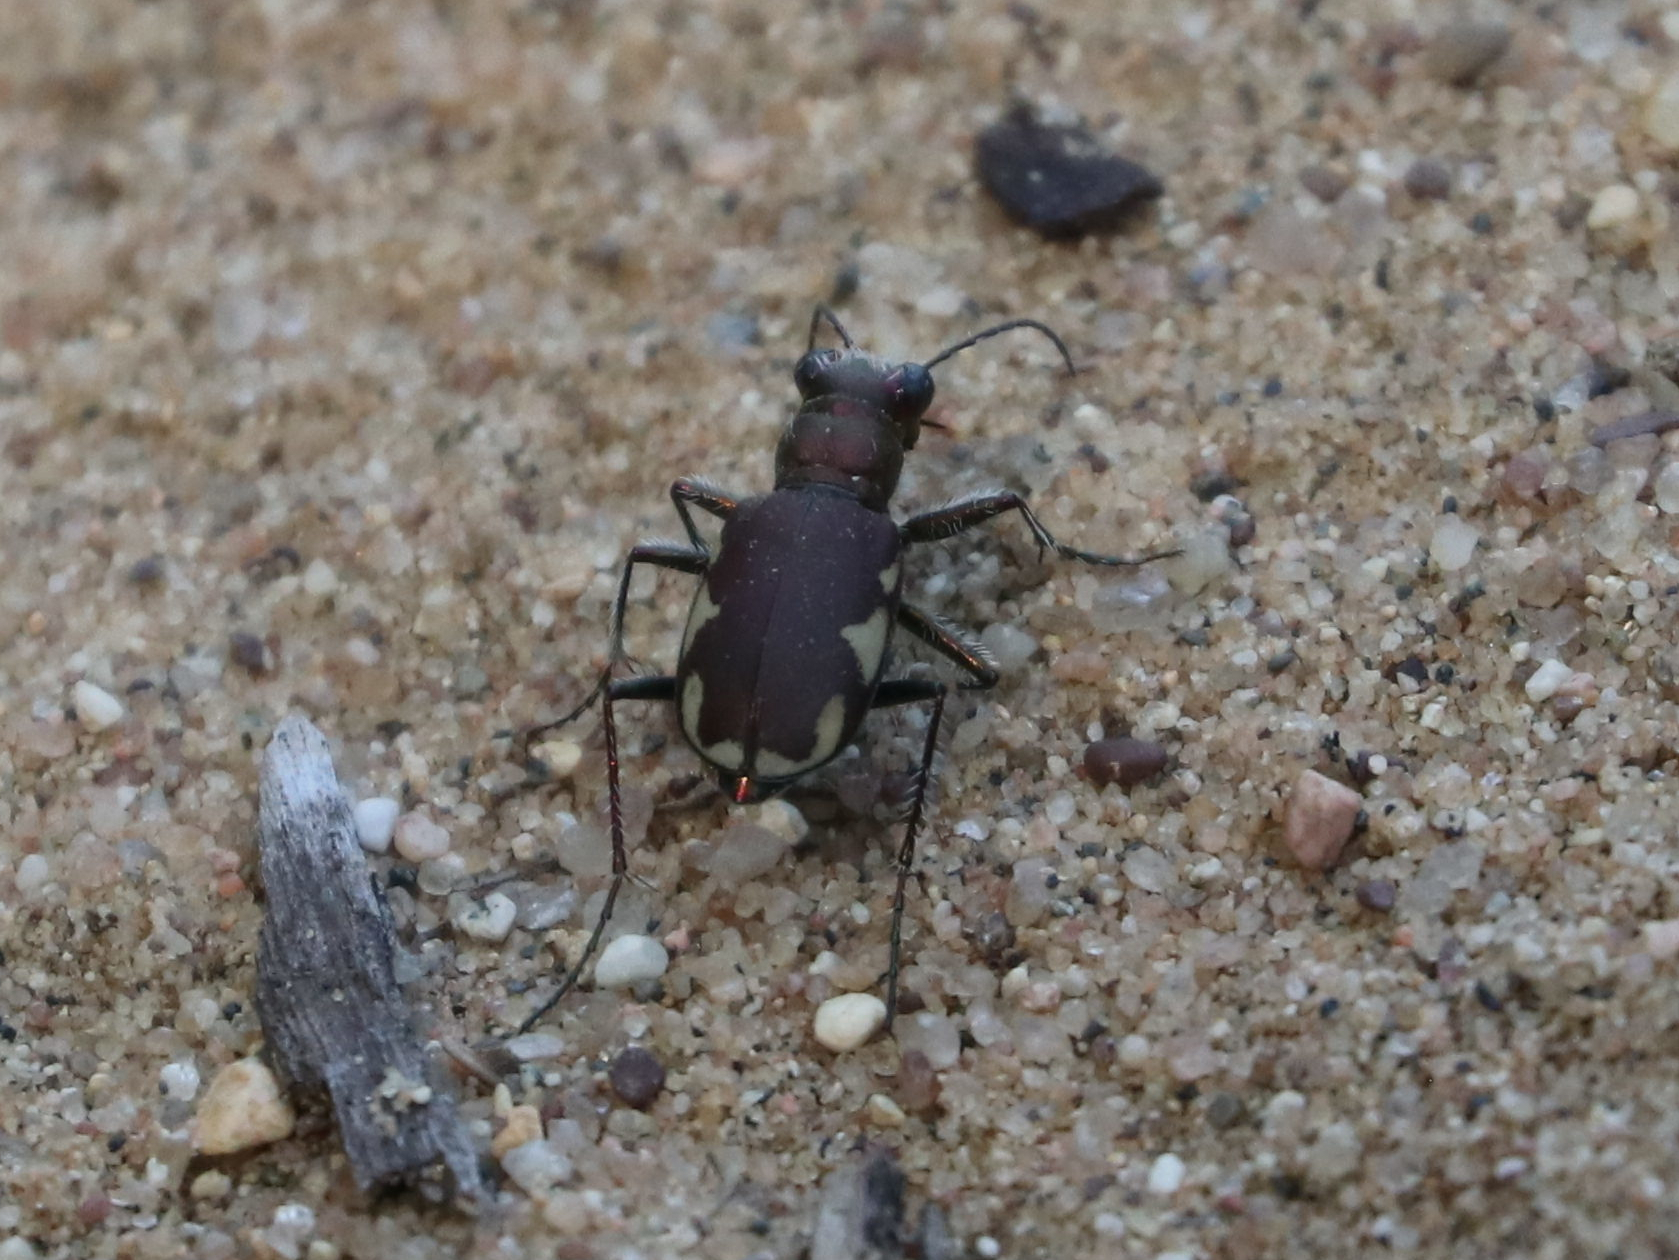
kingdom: Animalia
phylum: Arthropoda
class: Insecta
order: Coleoptera
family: Carabidae
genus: Cicindela
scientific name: Cicindela scutellaris
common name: Festive tiger beetle
